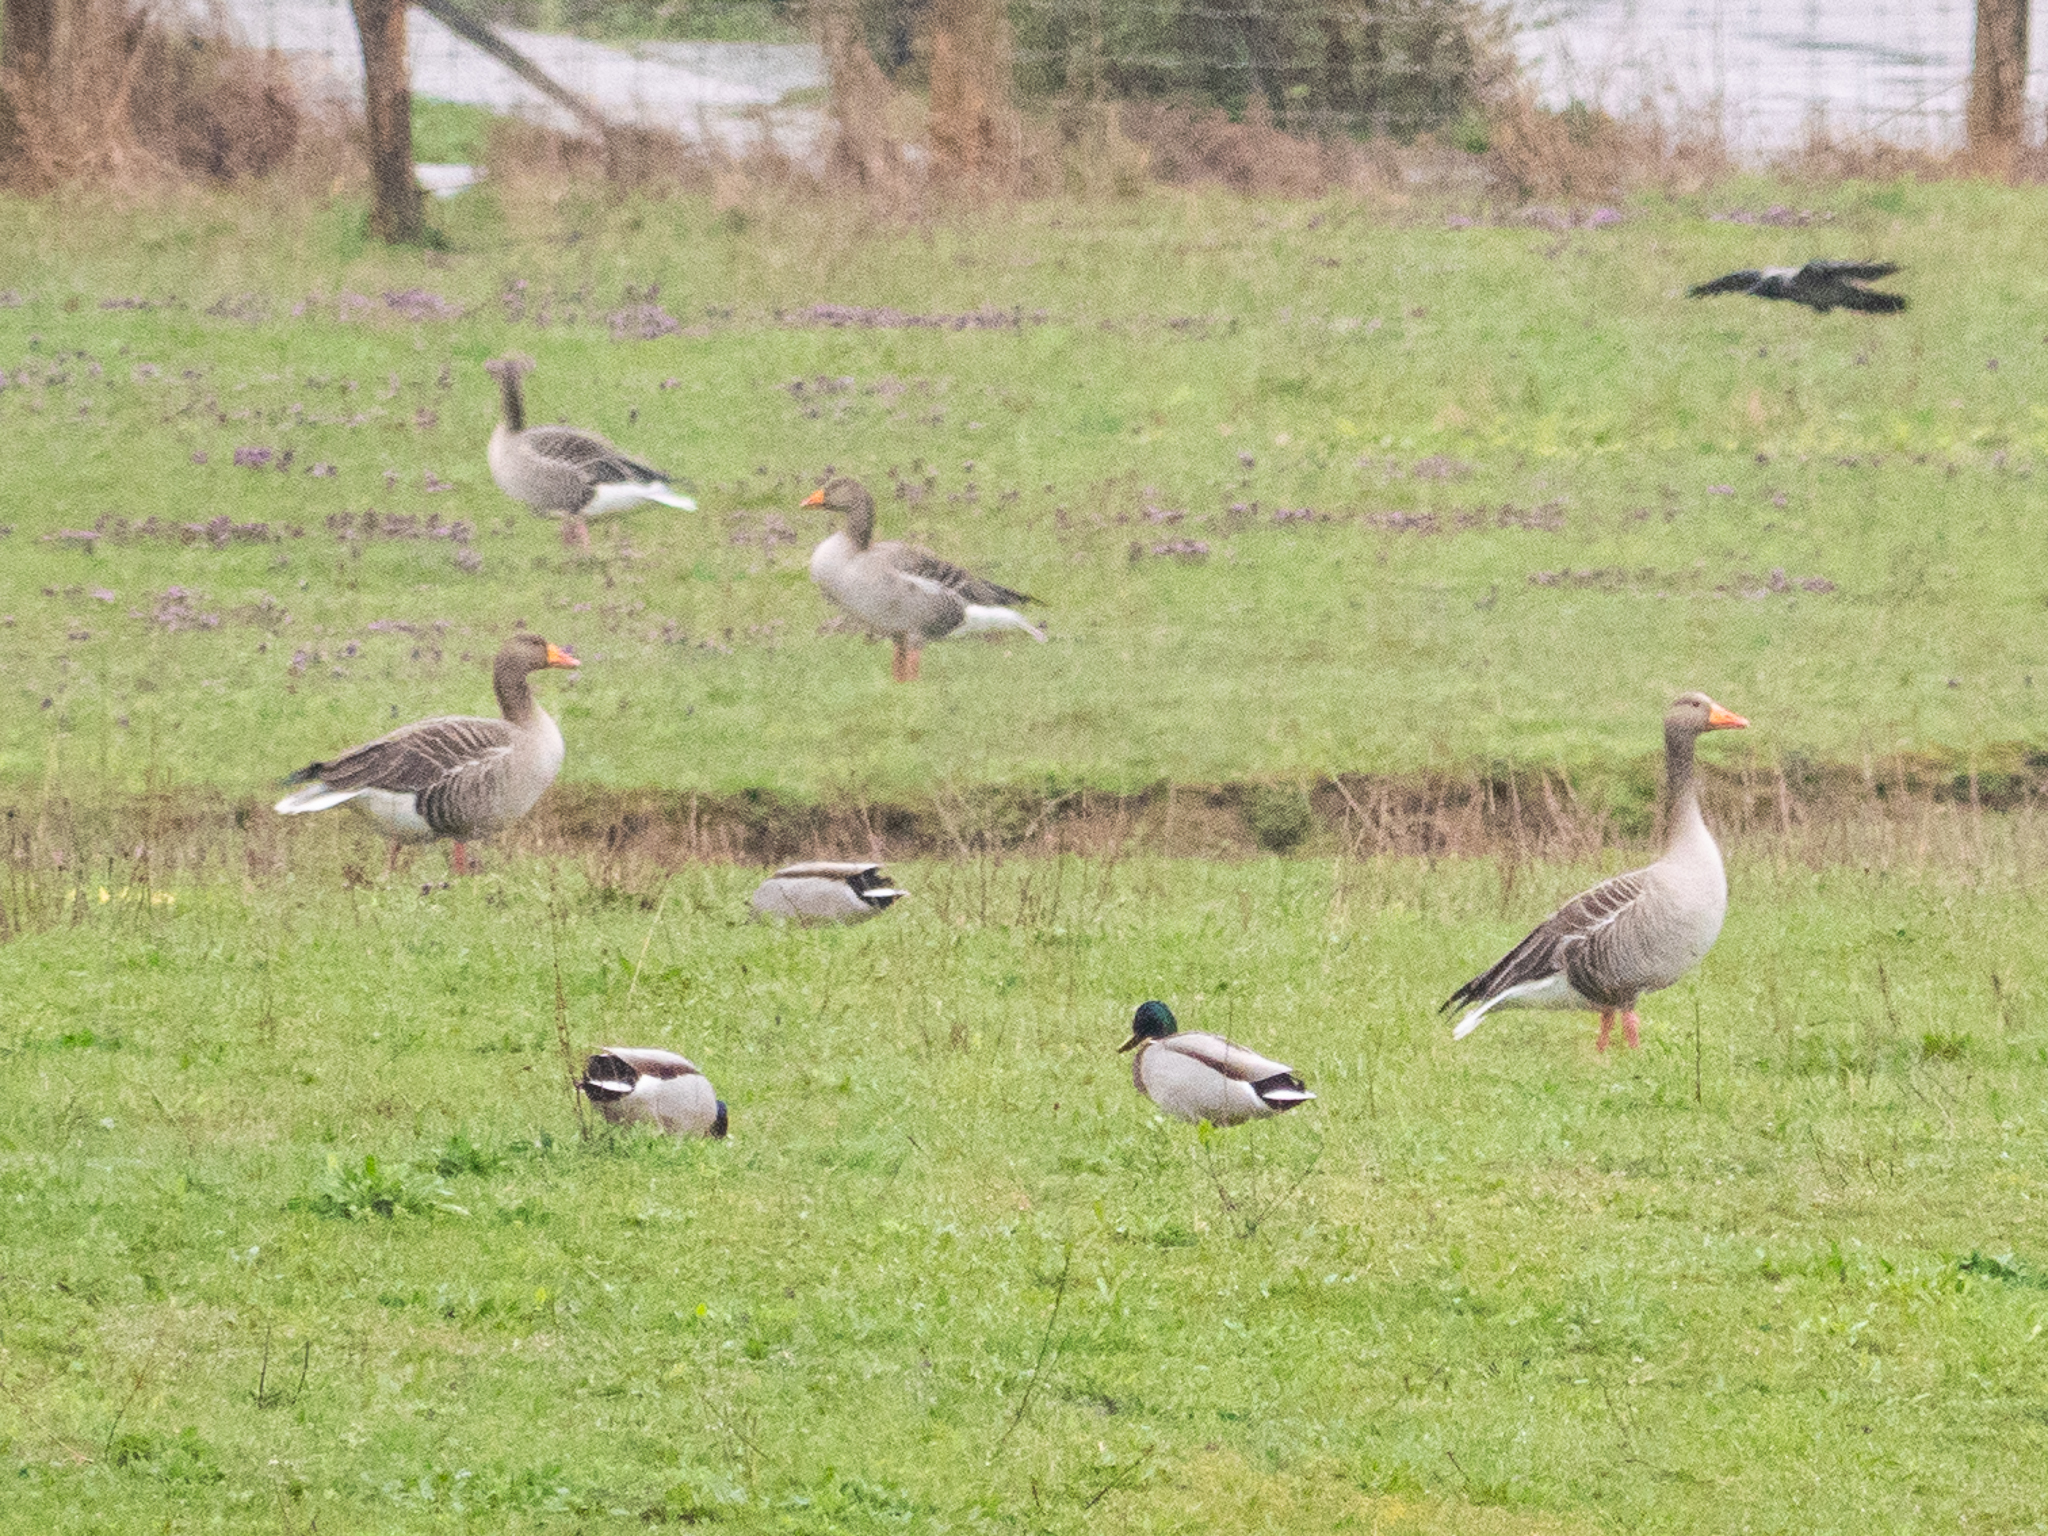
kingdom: Animalia
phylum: Chordata
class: Aves
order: Anseriformes
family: Anatidae
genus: Anser
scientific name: Anser anser
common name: Greylag goose
